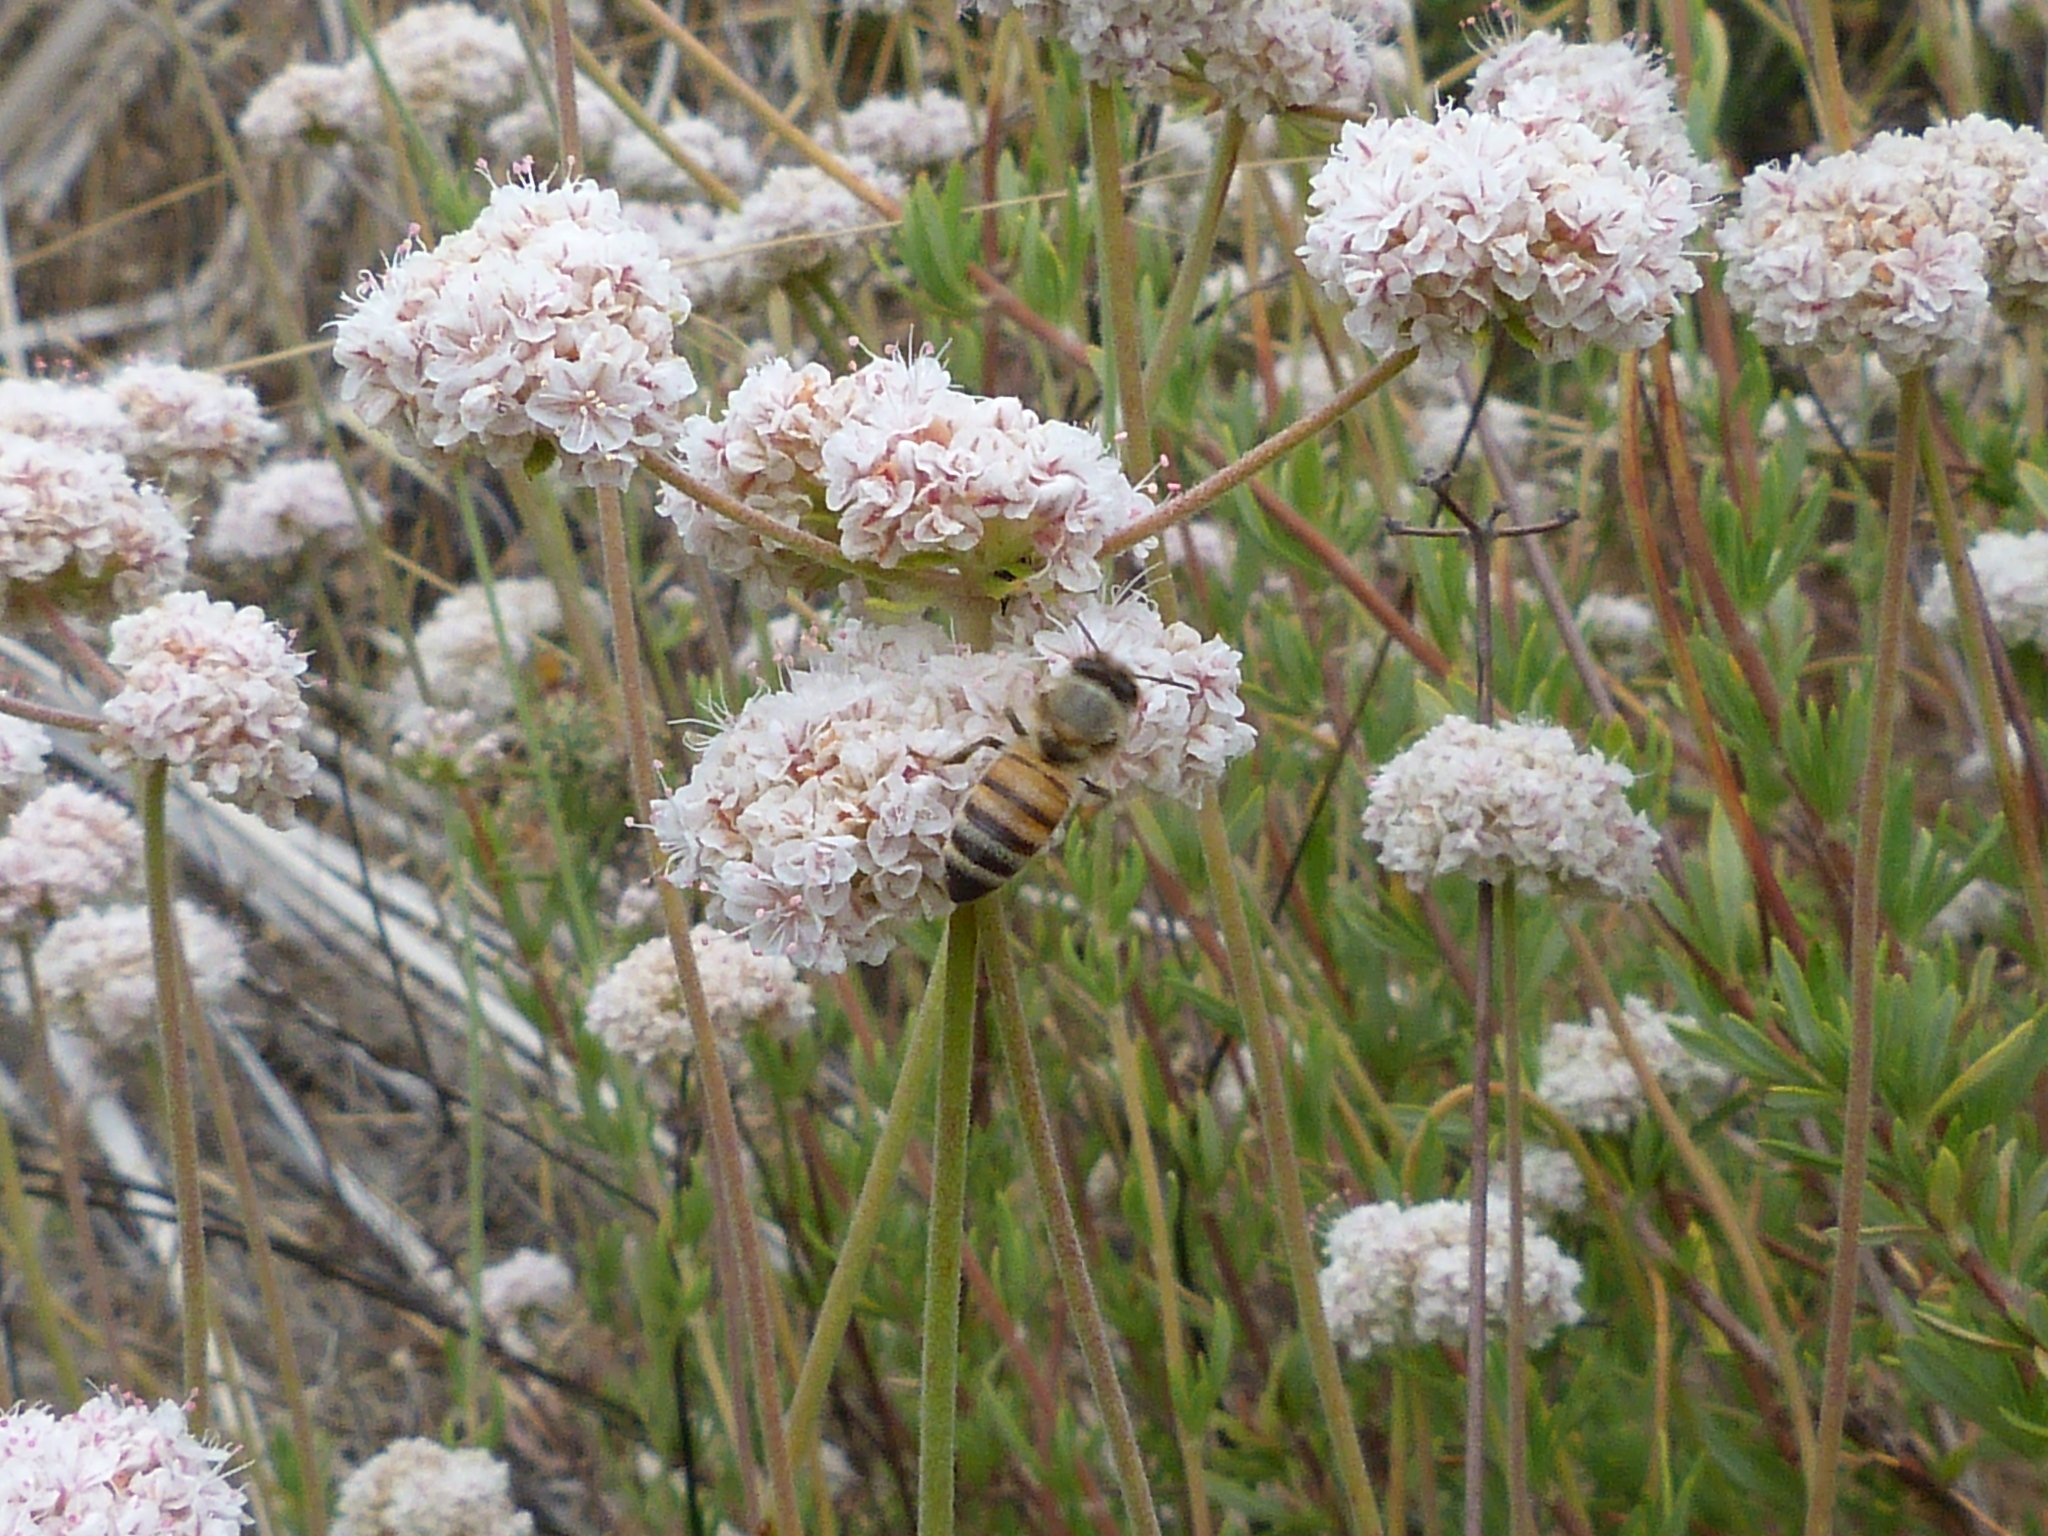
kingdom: Plantae
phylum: Tracheophyta
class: Magnoliopsida
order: Caryophyllales
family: Polygonaceae
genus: Eriogonum
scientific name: Eriogonum fasciculatum
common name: California wild buckwheat
